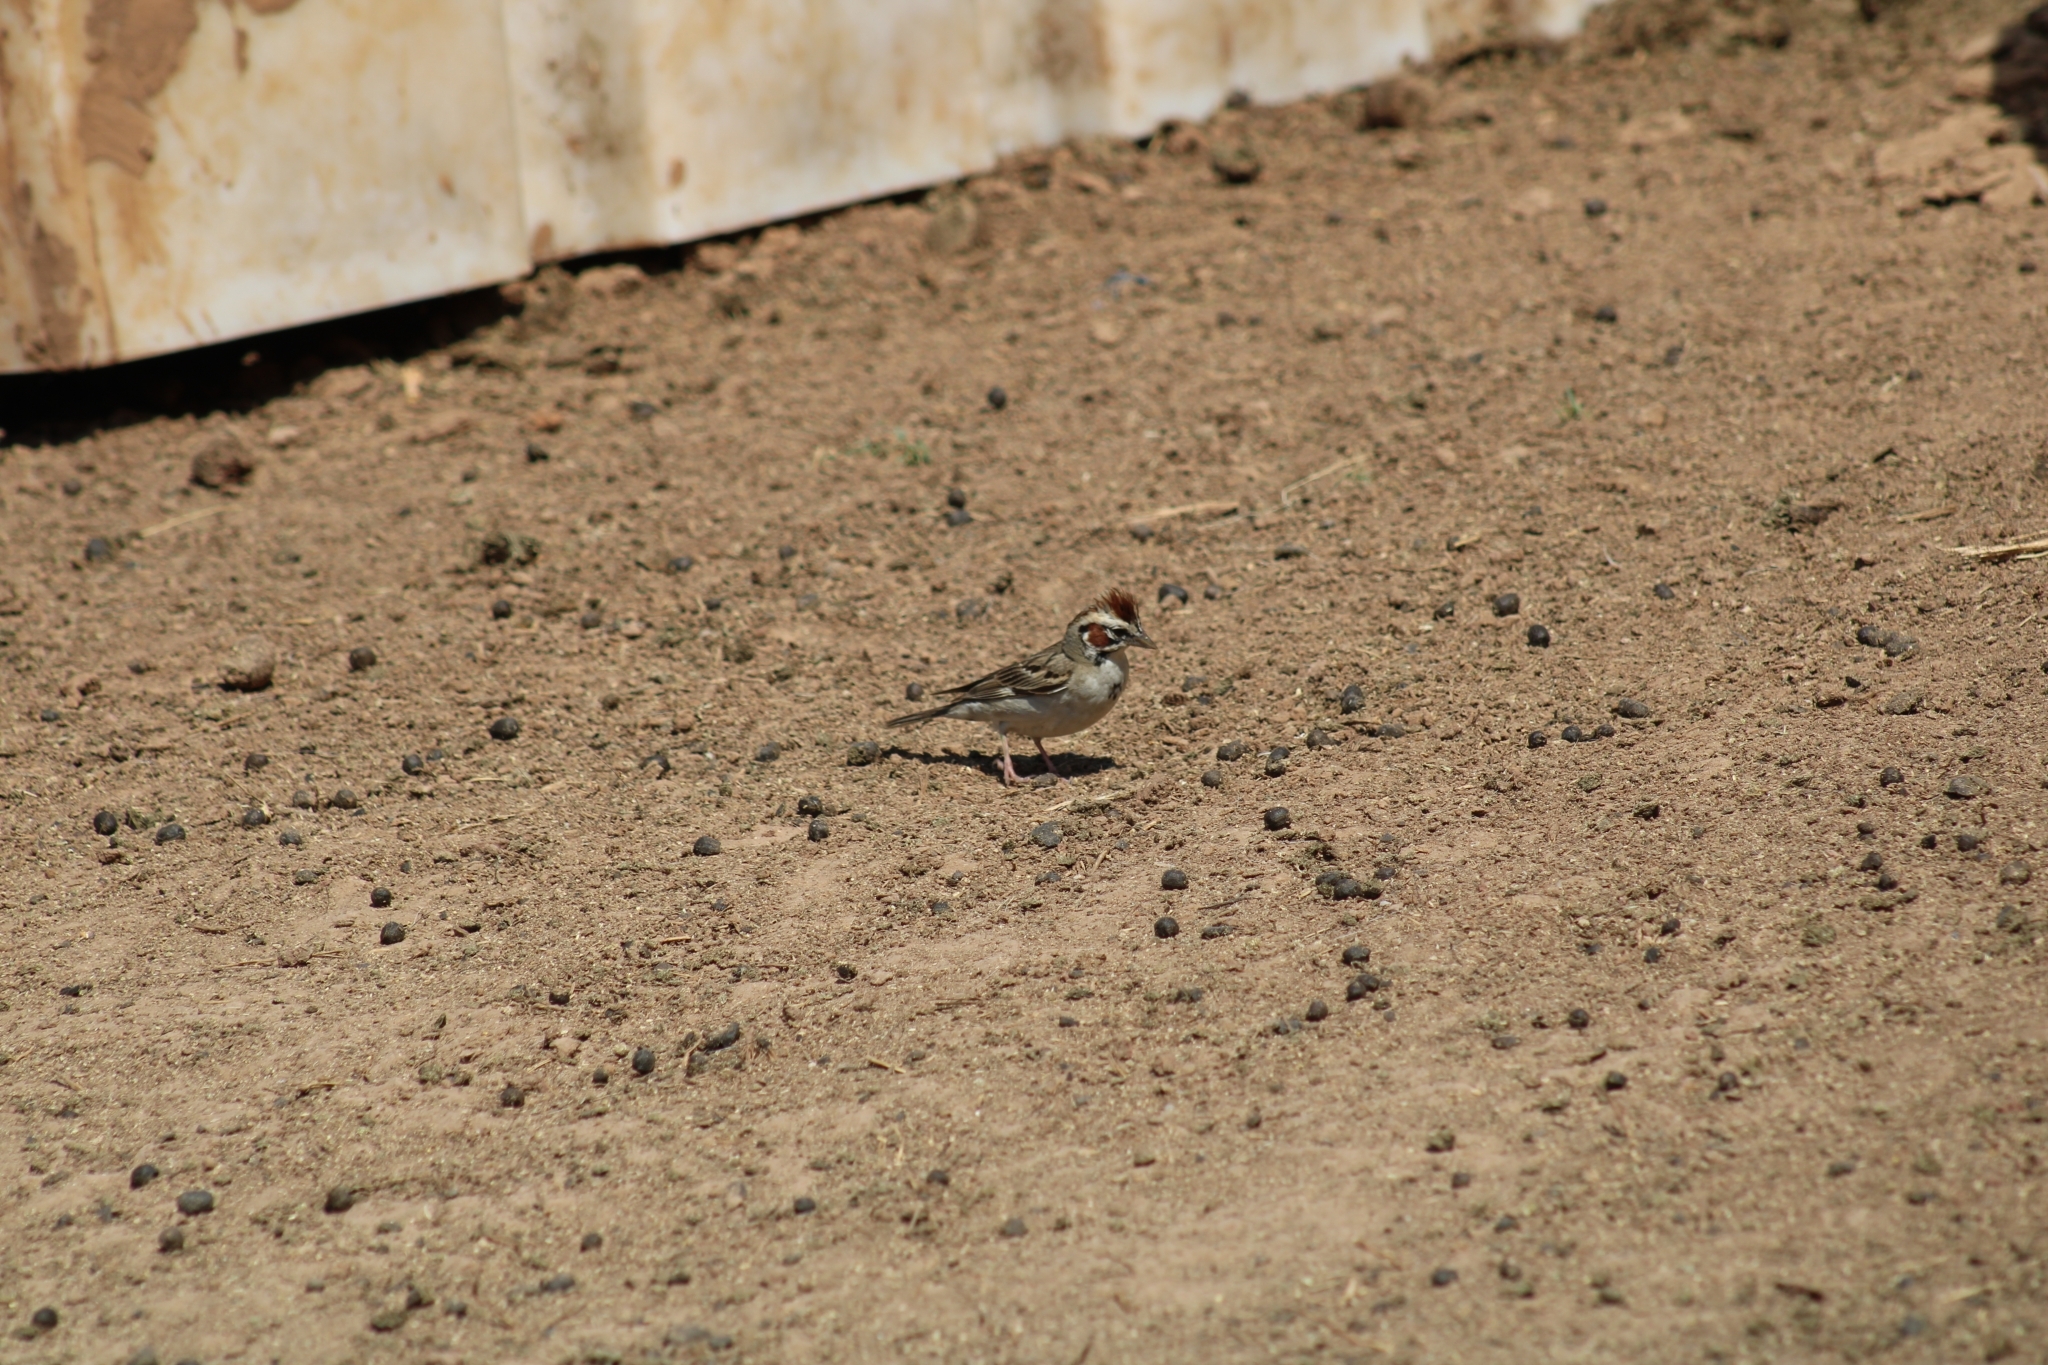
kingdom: Animalia
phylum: Chordata
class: Aves
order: Passeriformes
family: Passerellidae
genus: Chondestes
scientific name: Chondestes grammacus
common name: Lark sparrow
